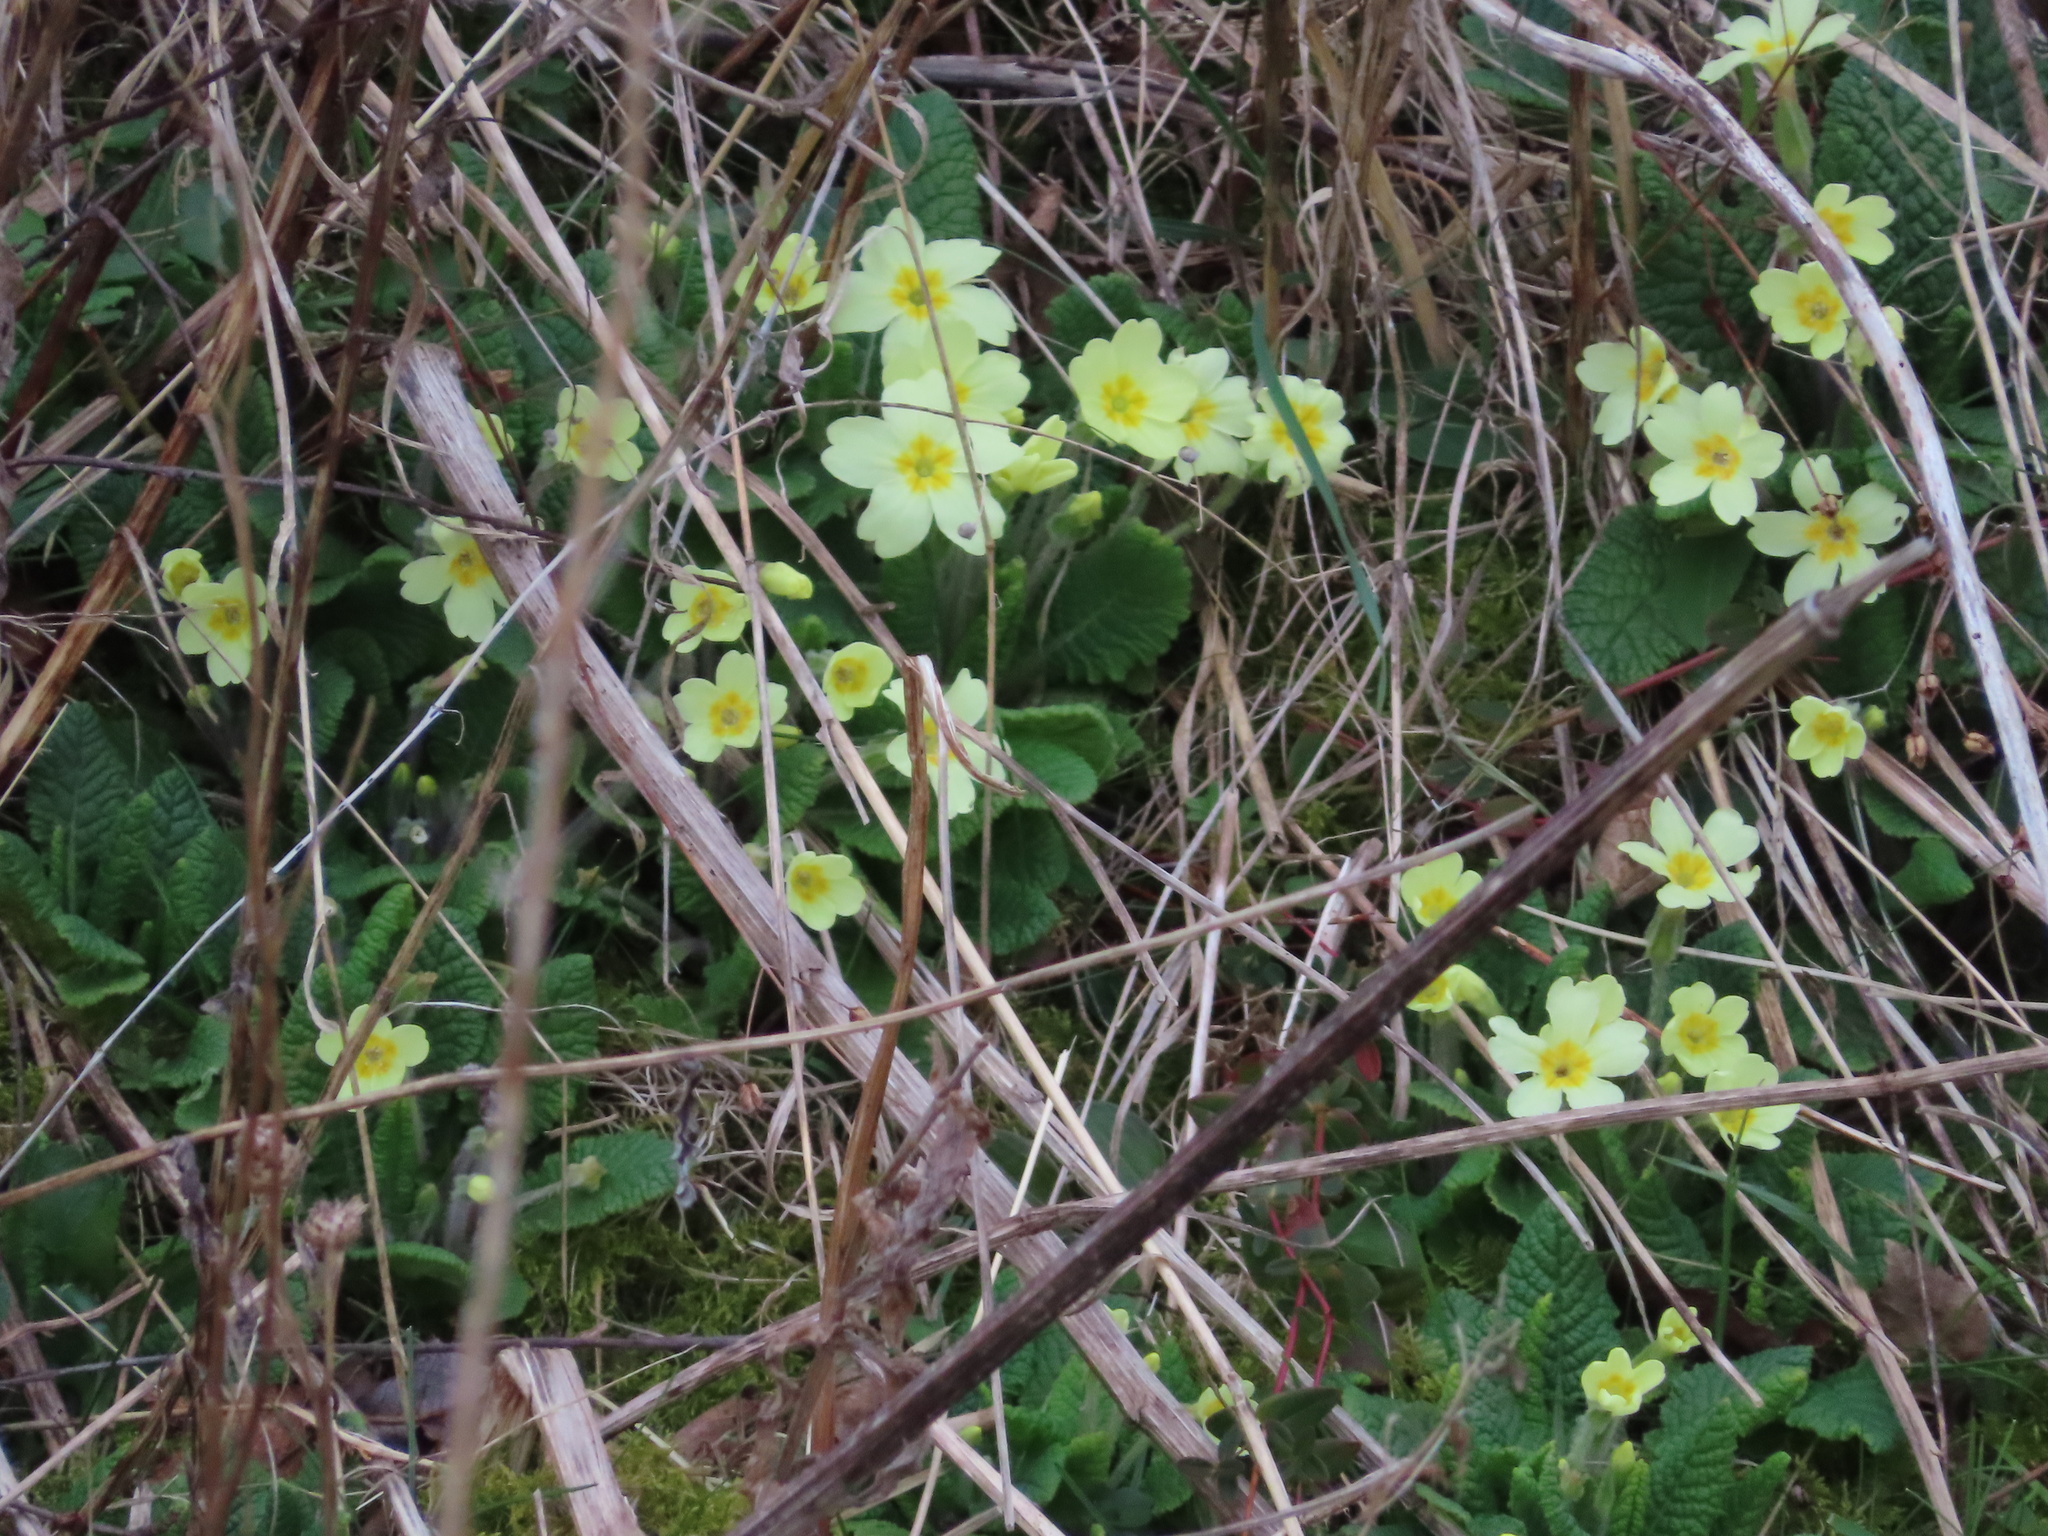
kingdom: Plantae
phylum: Tracheophyta
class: Magnoliopsida
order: Ericales
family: Primulaceae
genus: Primula
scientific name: Primula vulgaris
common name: Primrose
